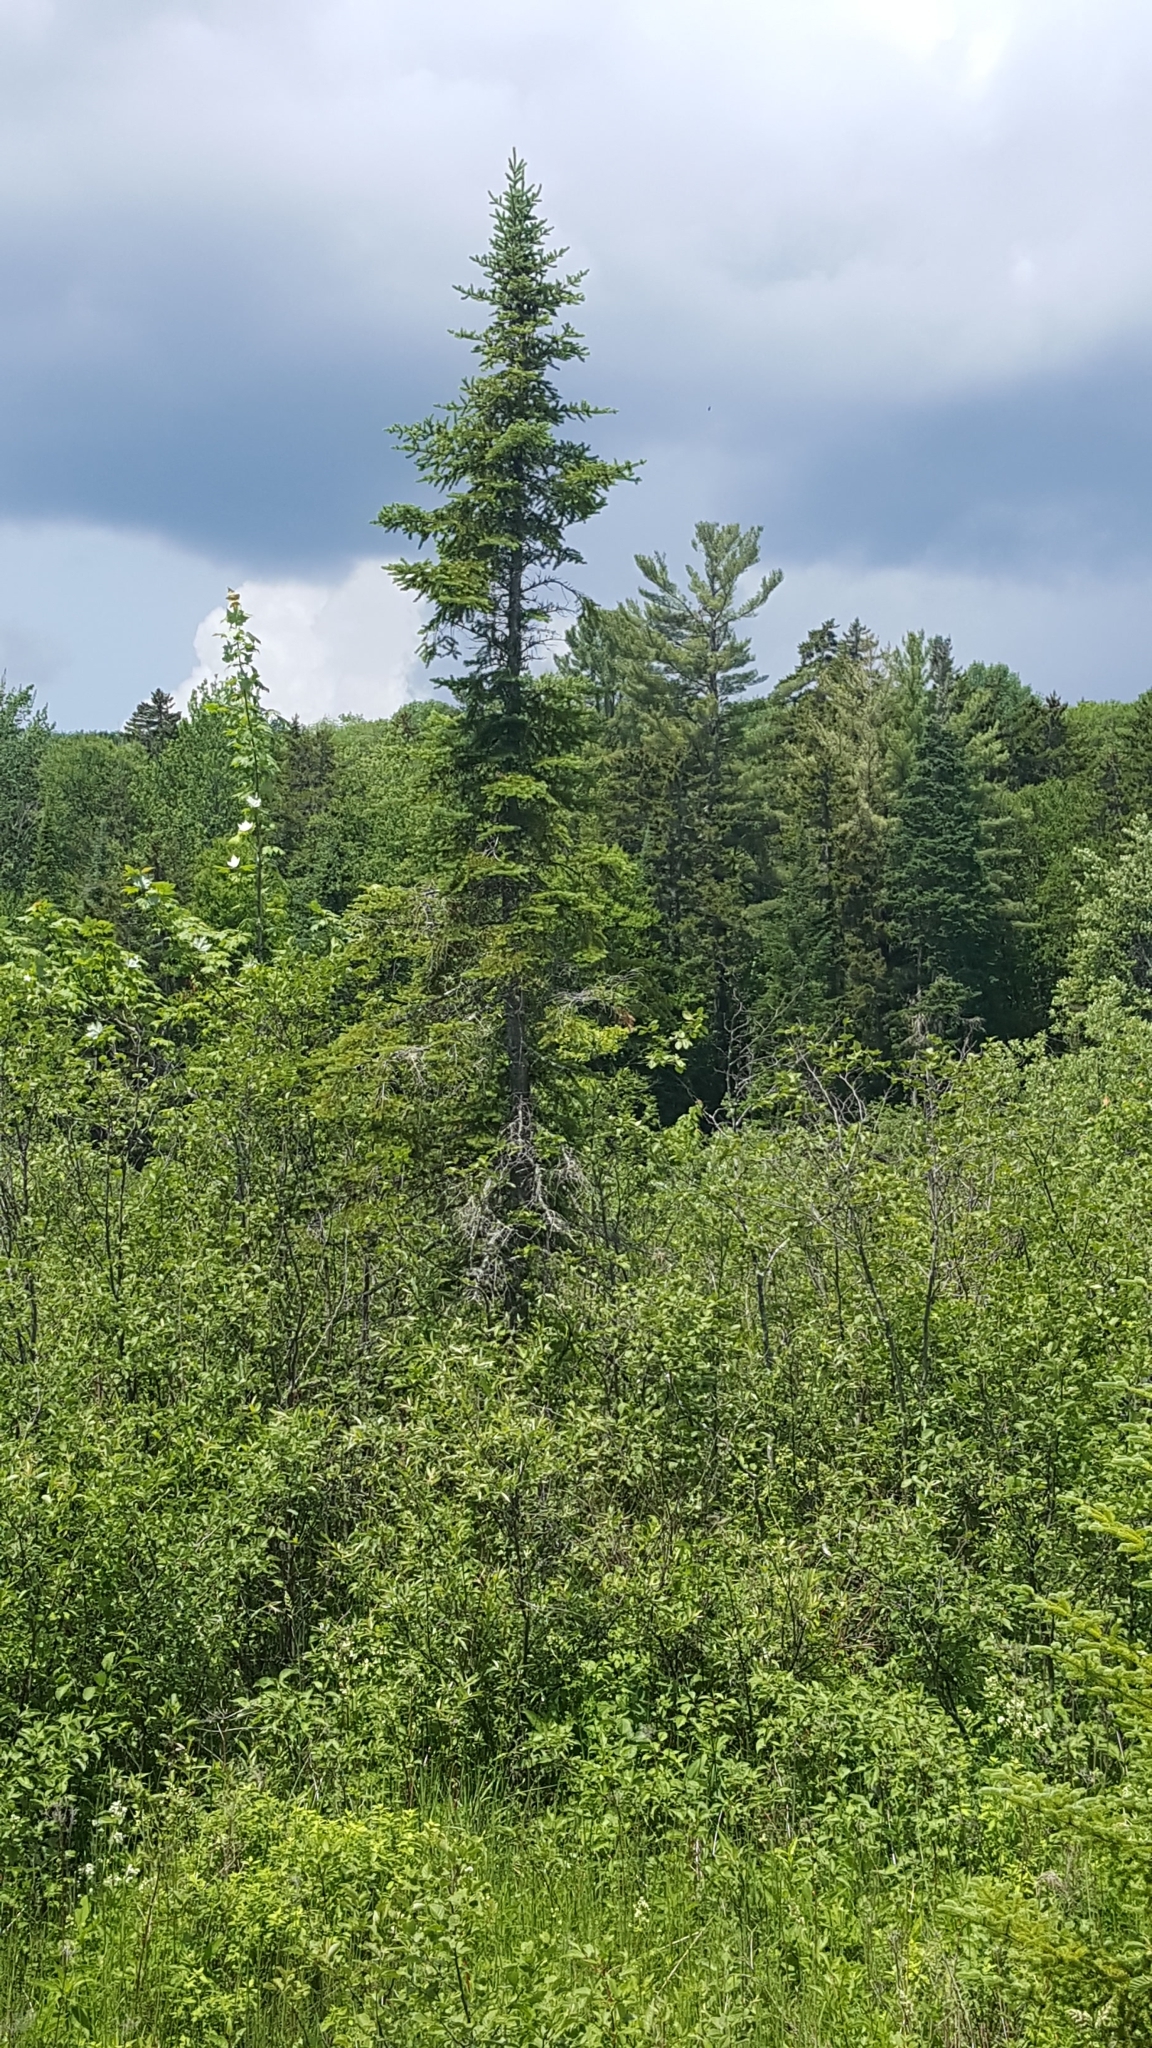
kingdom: Plantae
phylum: Tracheophyta
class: Pinopsida
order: Pinales
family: Pinaceae
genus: Abies
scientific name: Abies balsamea
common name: Balsam fir
